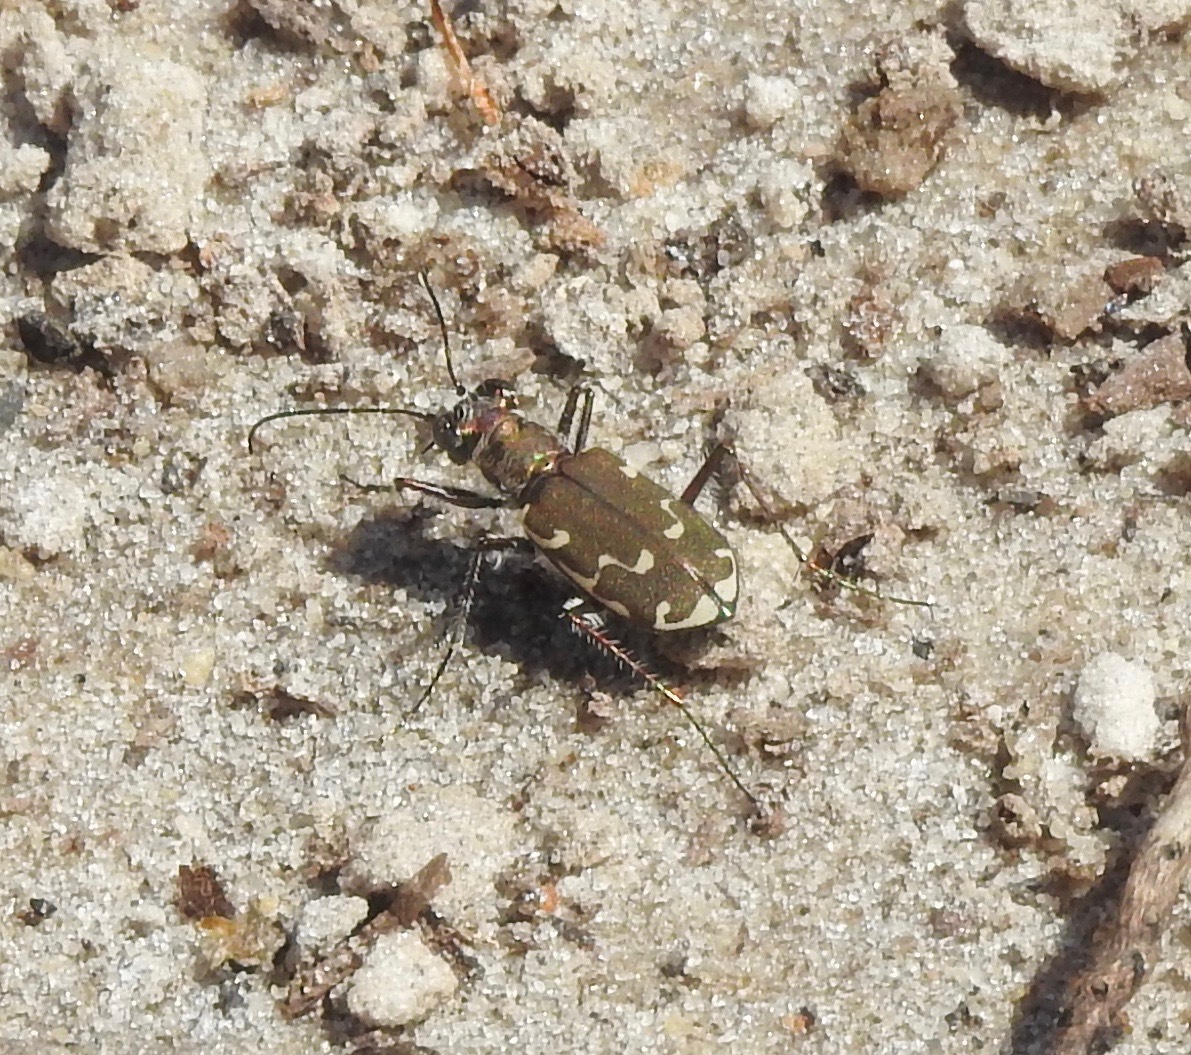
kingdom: Animalia
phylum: Arthropoda
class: Insecta
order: Coleoptera
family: Carabidae
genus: Cicindela
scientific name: Cicindela repanda
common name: Bronzed tiger beetle
